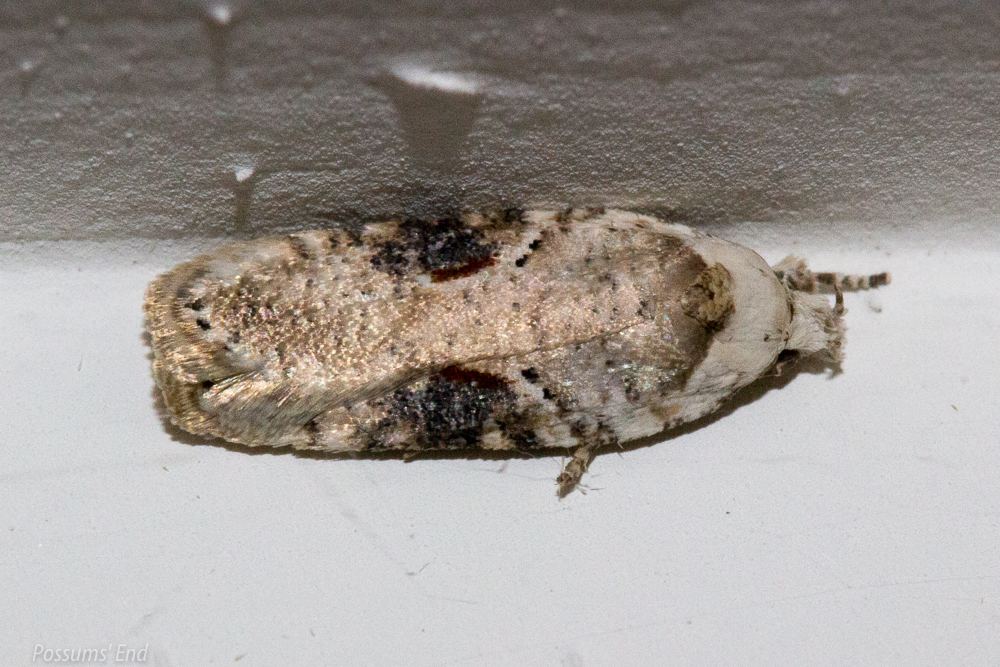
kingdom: Animalia
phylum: Arthropoda
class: Insecta
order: Lepidoptera
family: Depressariidae
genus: Agonopterix
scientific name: Agonopterix alstroemeriana
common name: Moth
